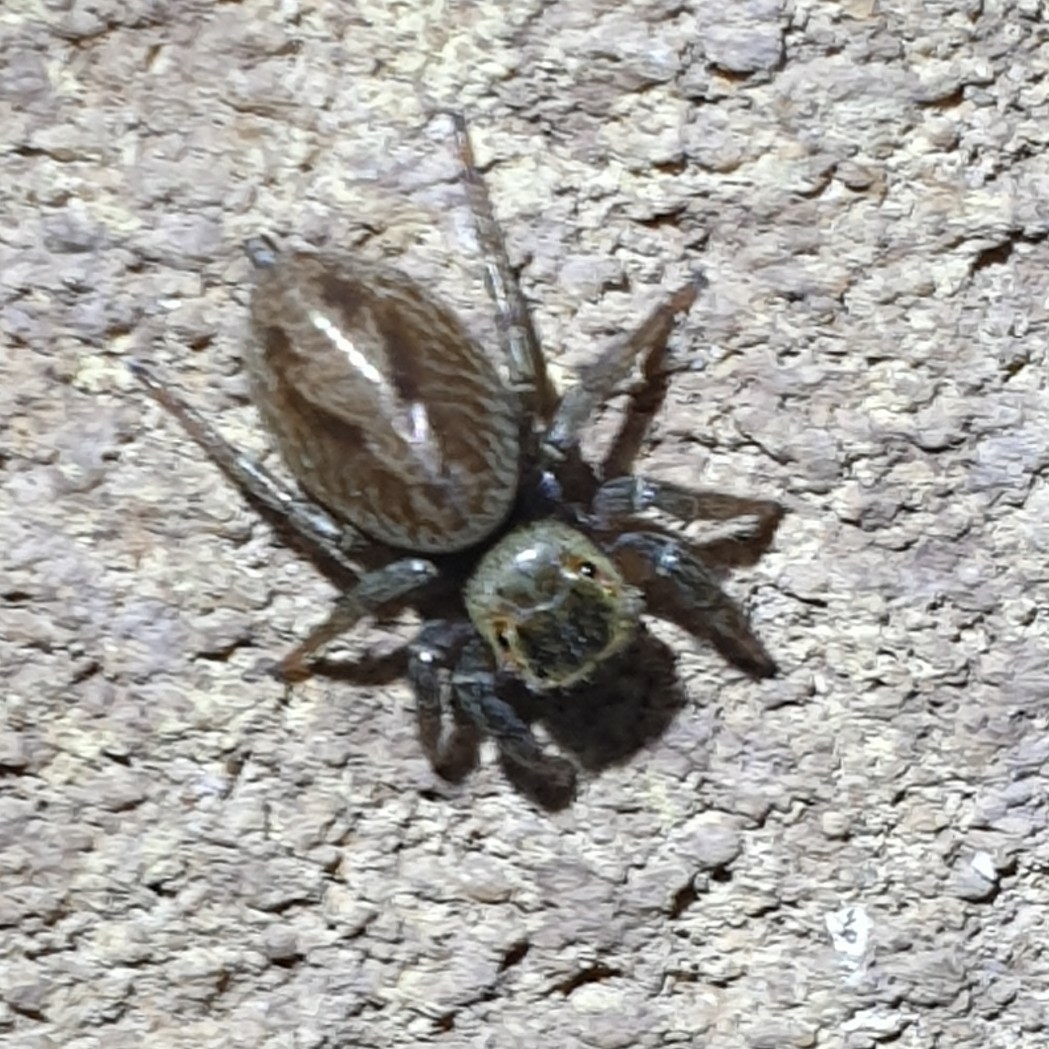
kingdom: Animalia
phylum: Arthropoda
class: Arachnida
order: Araneae
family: Salticidae
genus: Hasarius
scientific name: Hasarius adansoni
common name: Jumping spider
